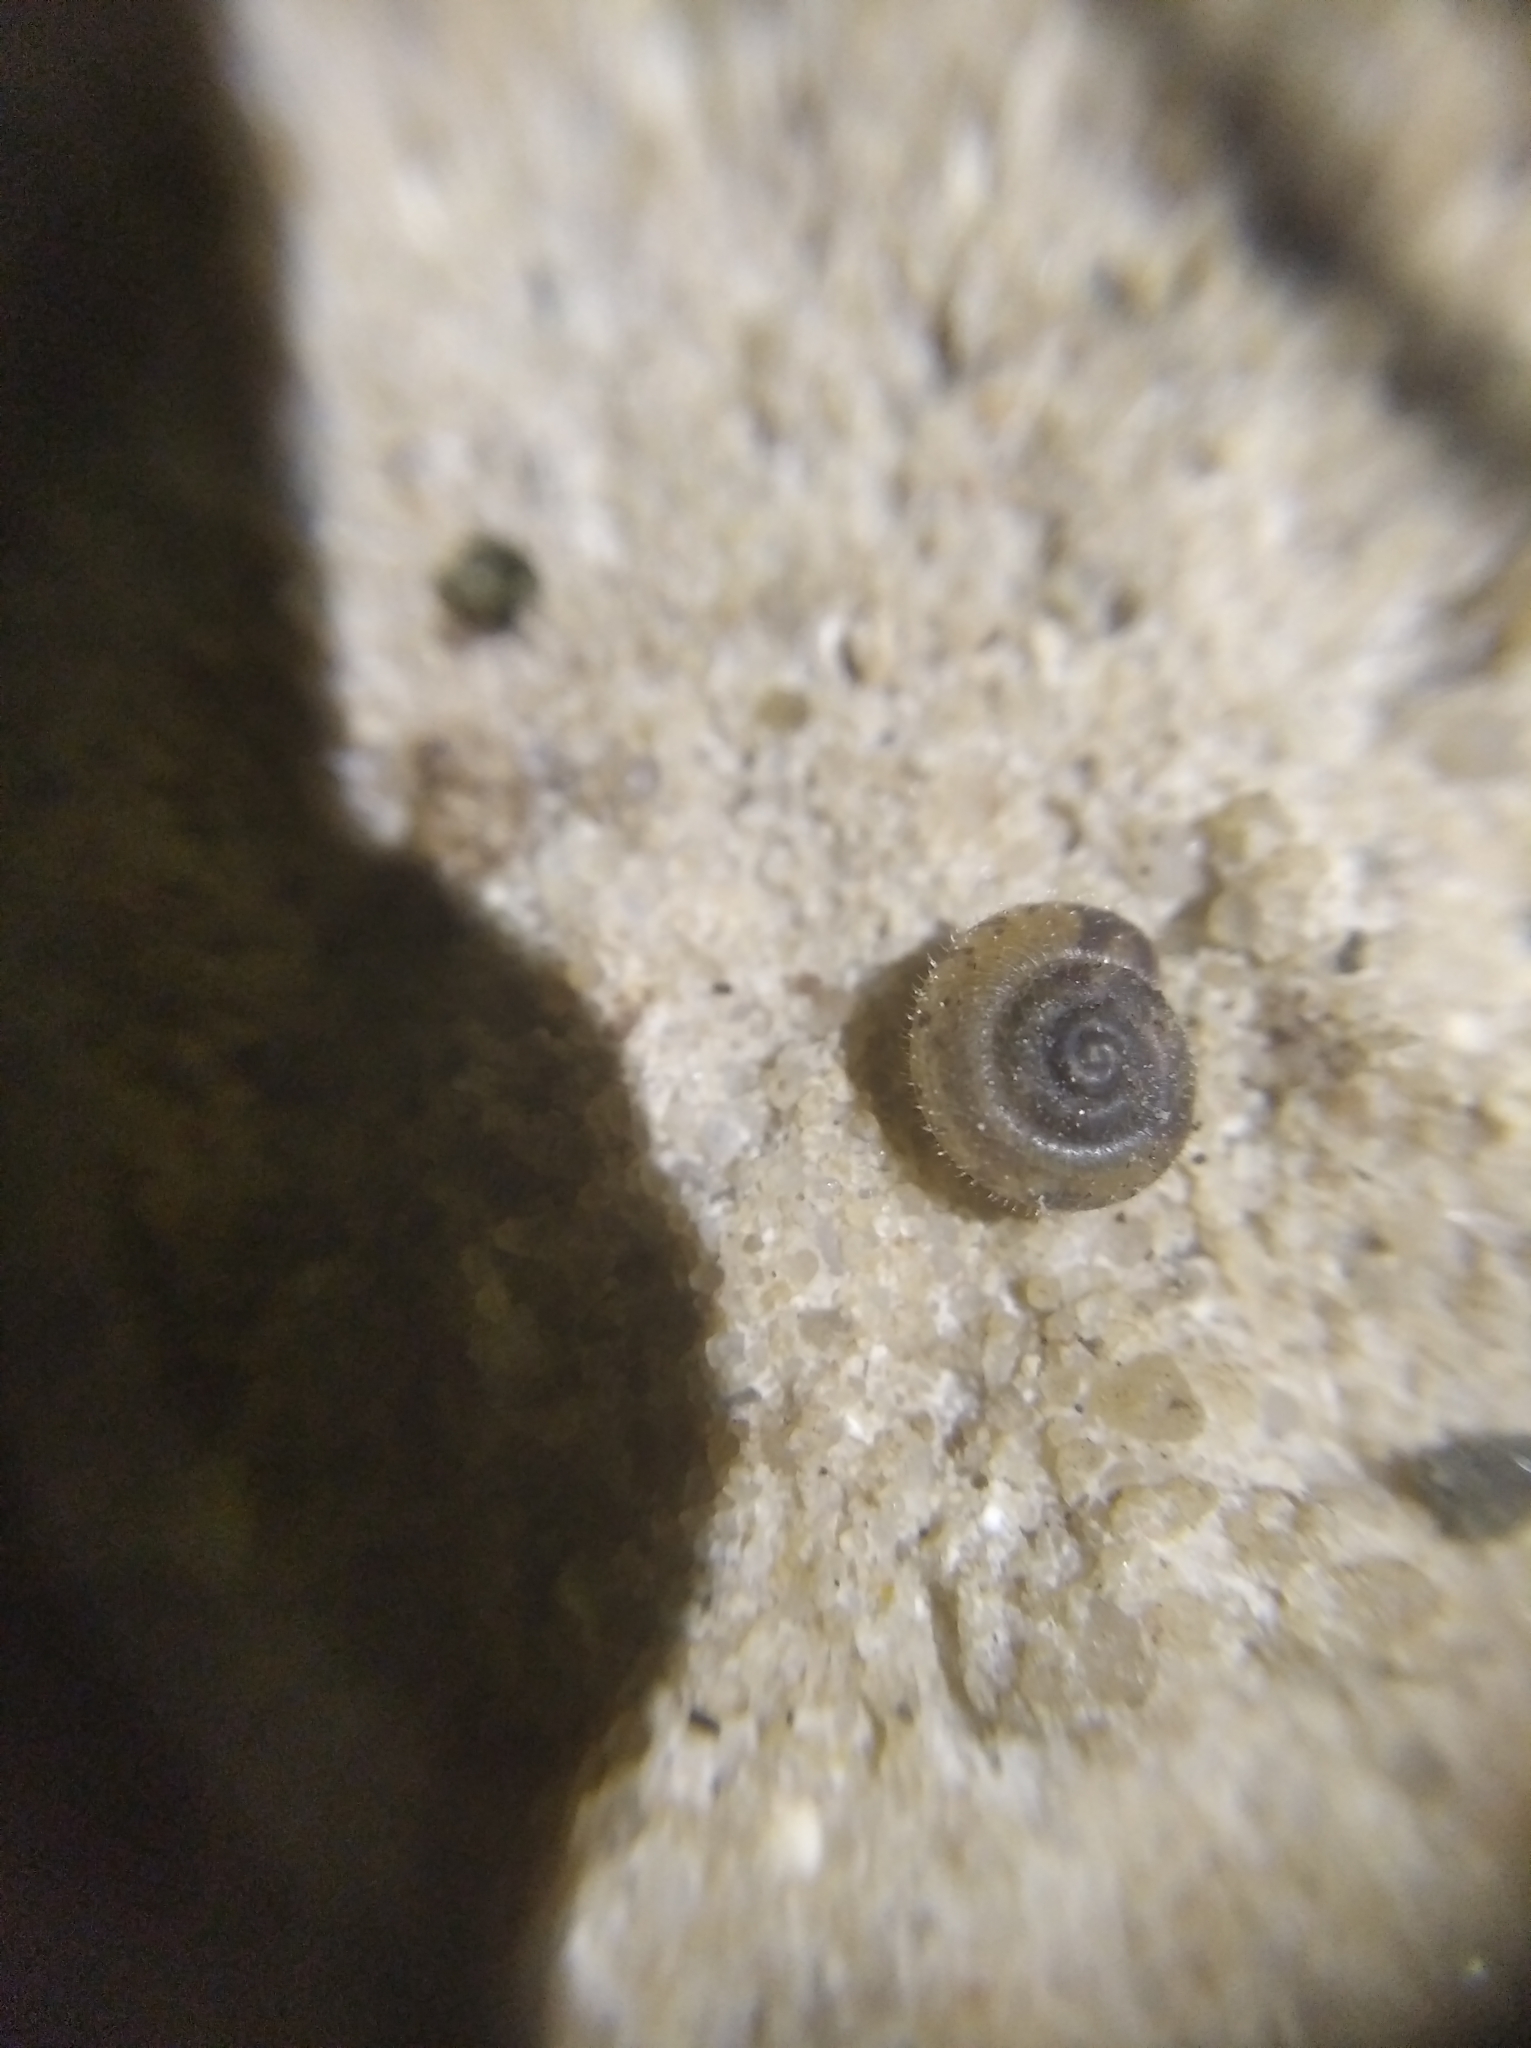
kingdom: Animalia
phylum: Mollusca
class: Gastropoda
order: Stylommatophora
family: Hygromiidae
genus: Trochulus
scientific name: Trochulus hispidus
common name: Hairy snail
